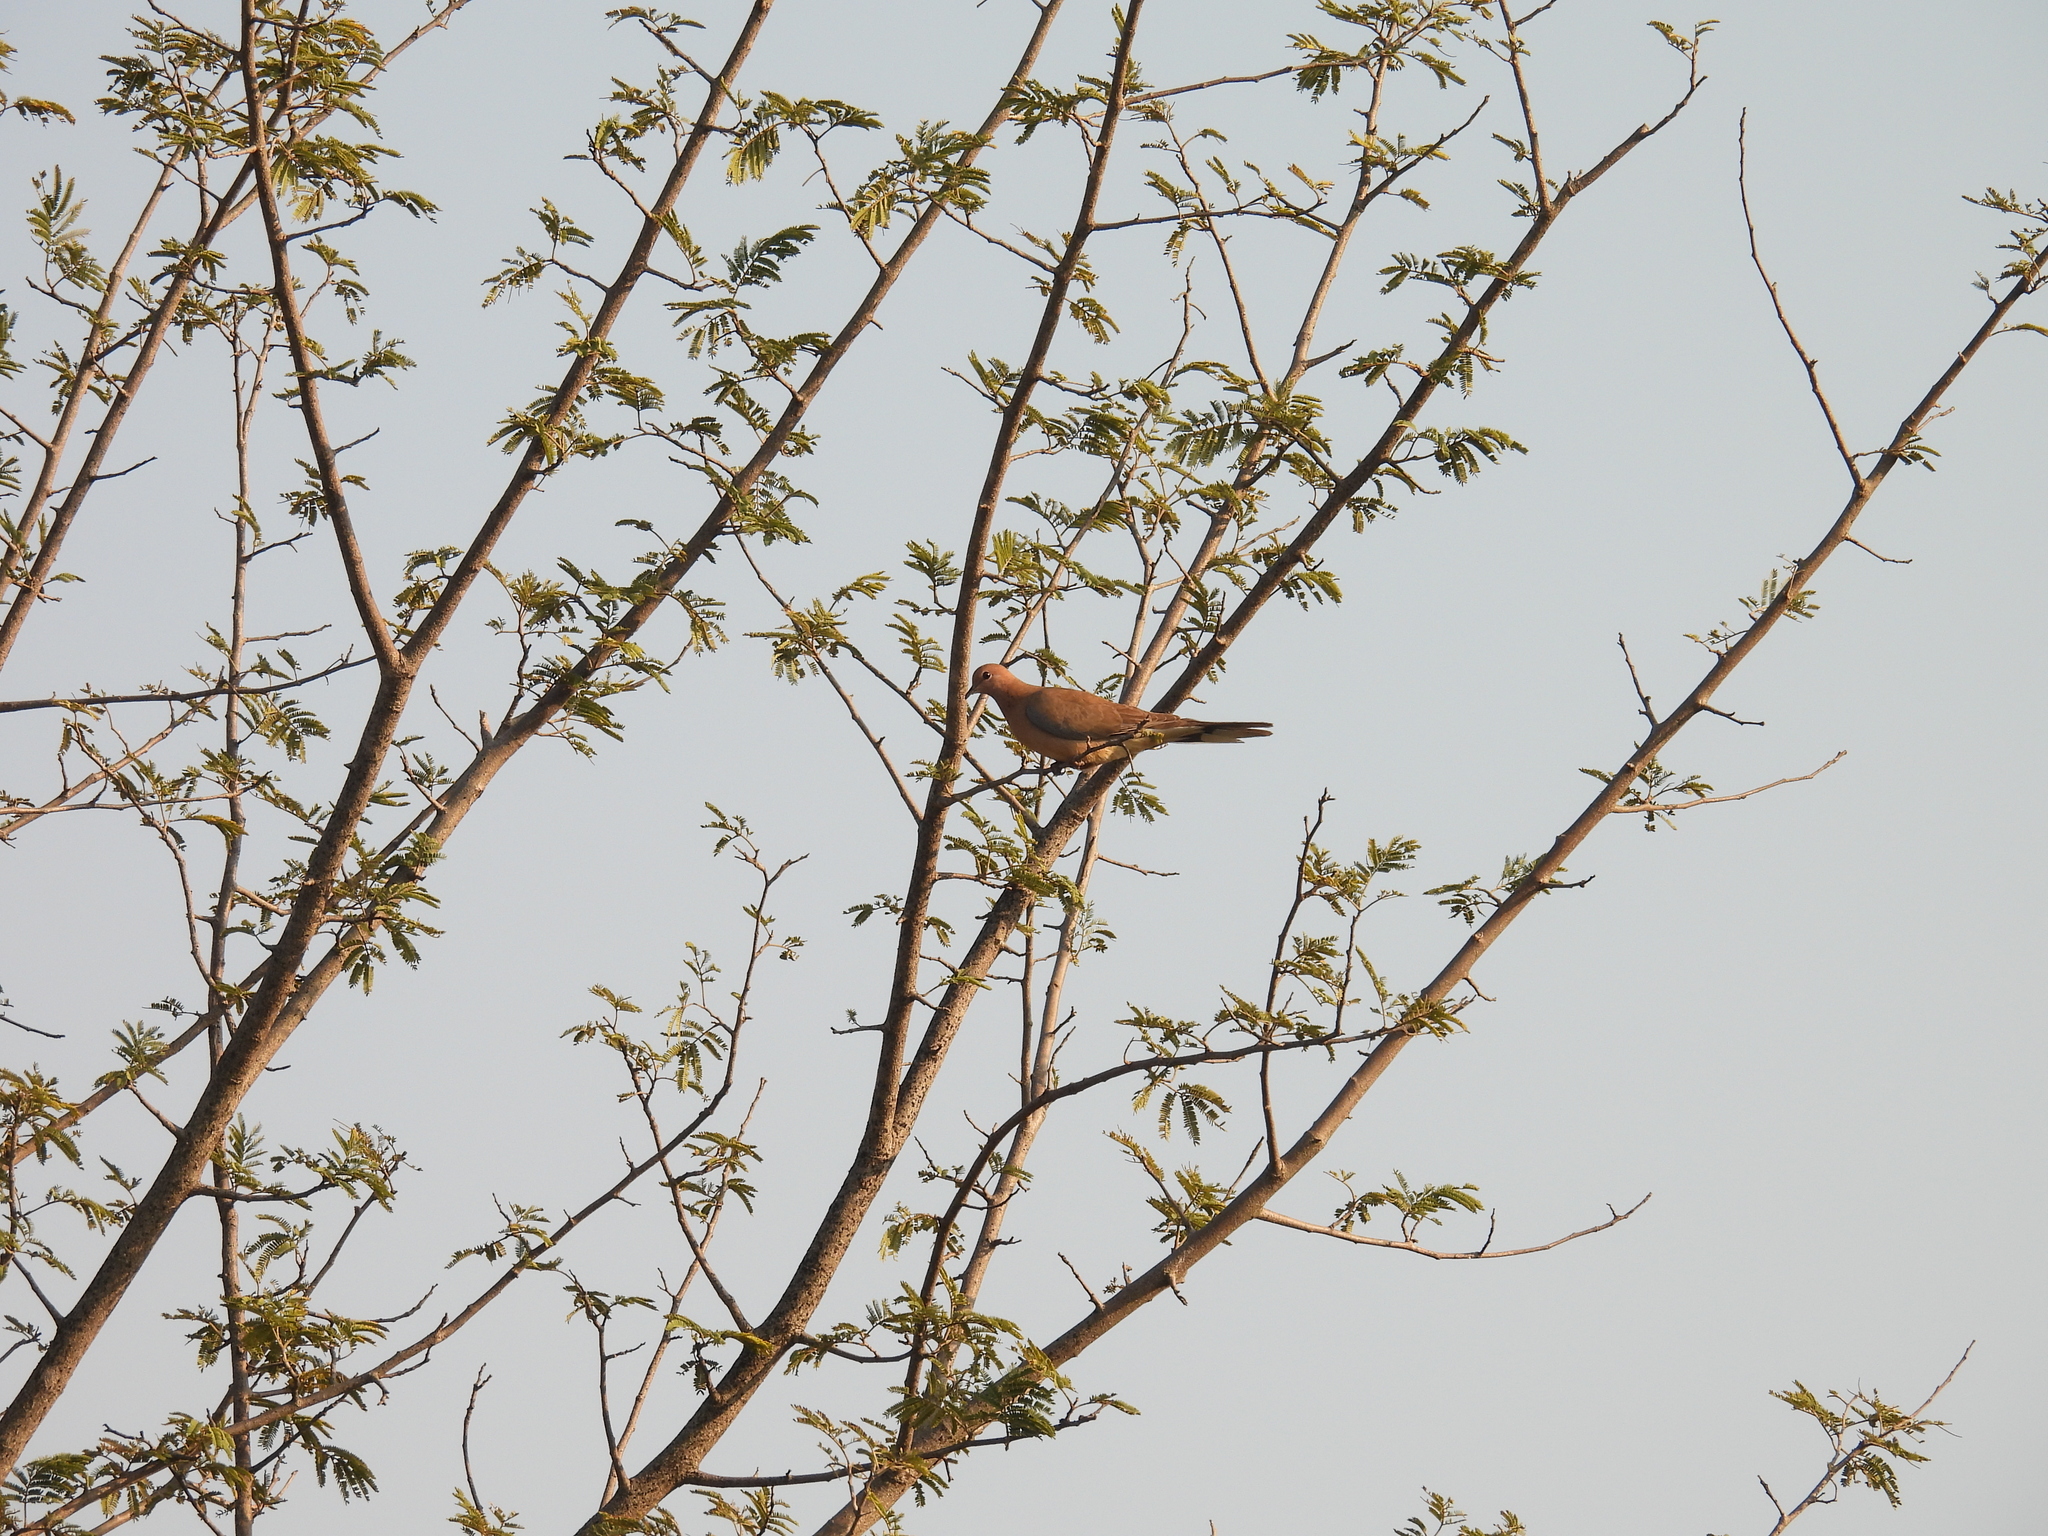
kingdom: Animalia
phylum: Chordata
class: Aves
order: Columbiformes
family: Columbidae
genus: Spilopelia
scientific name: Spilopelia senegalensis
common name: Laughing dove
